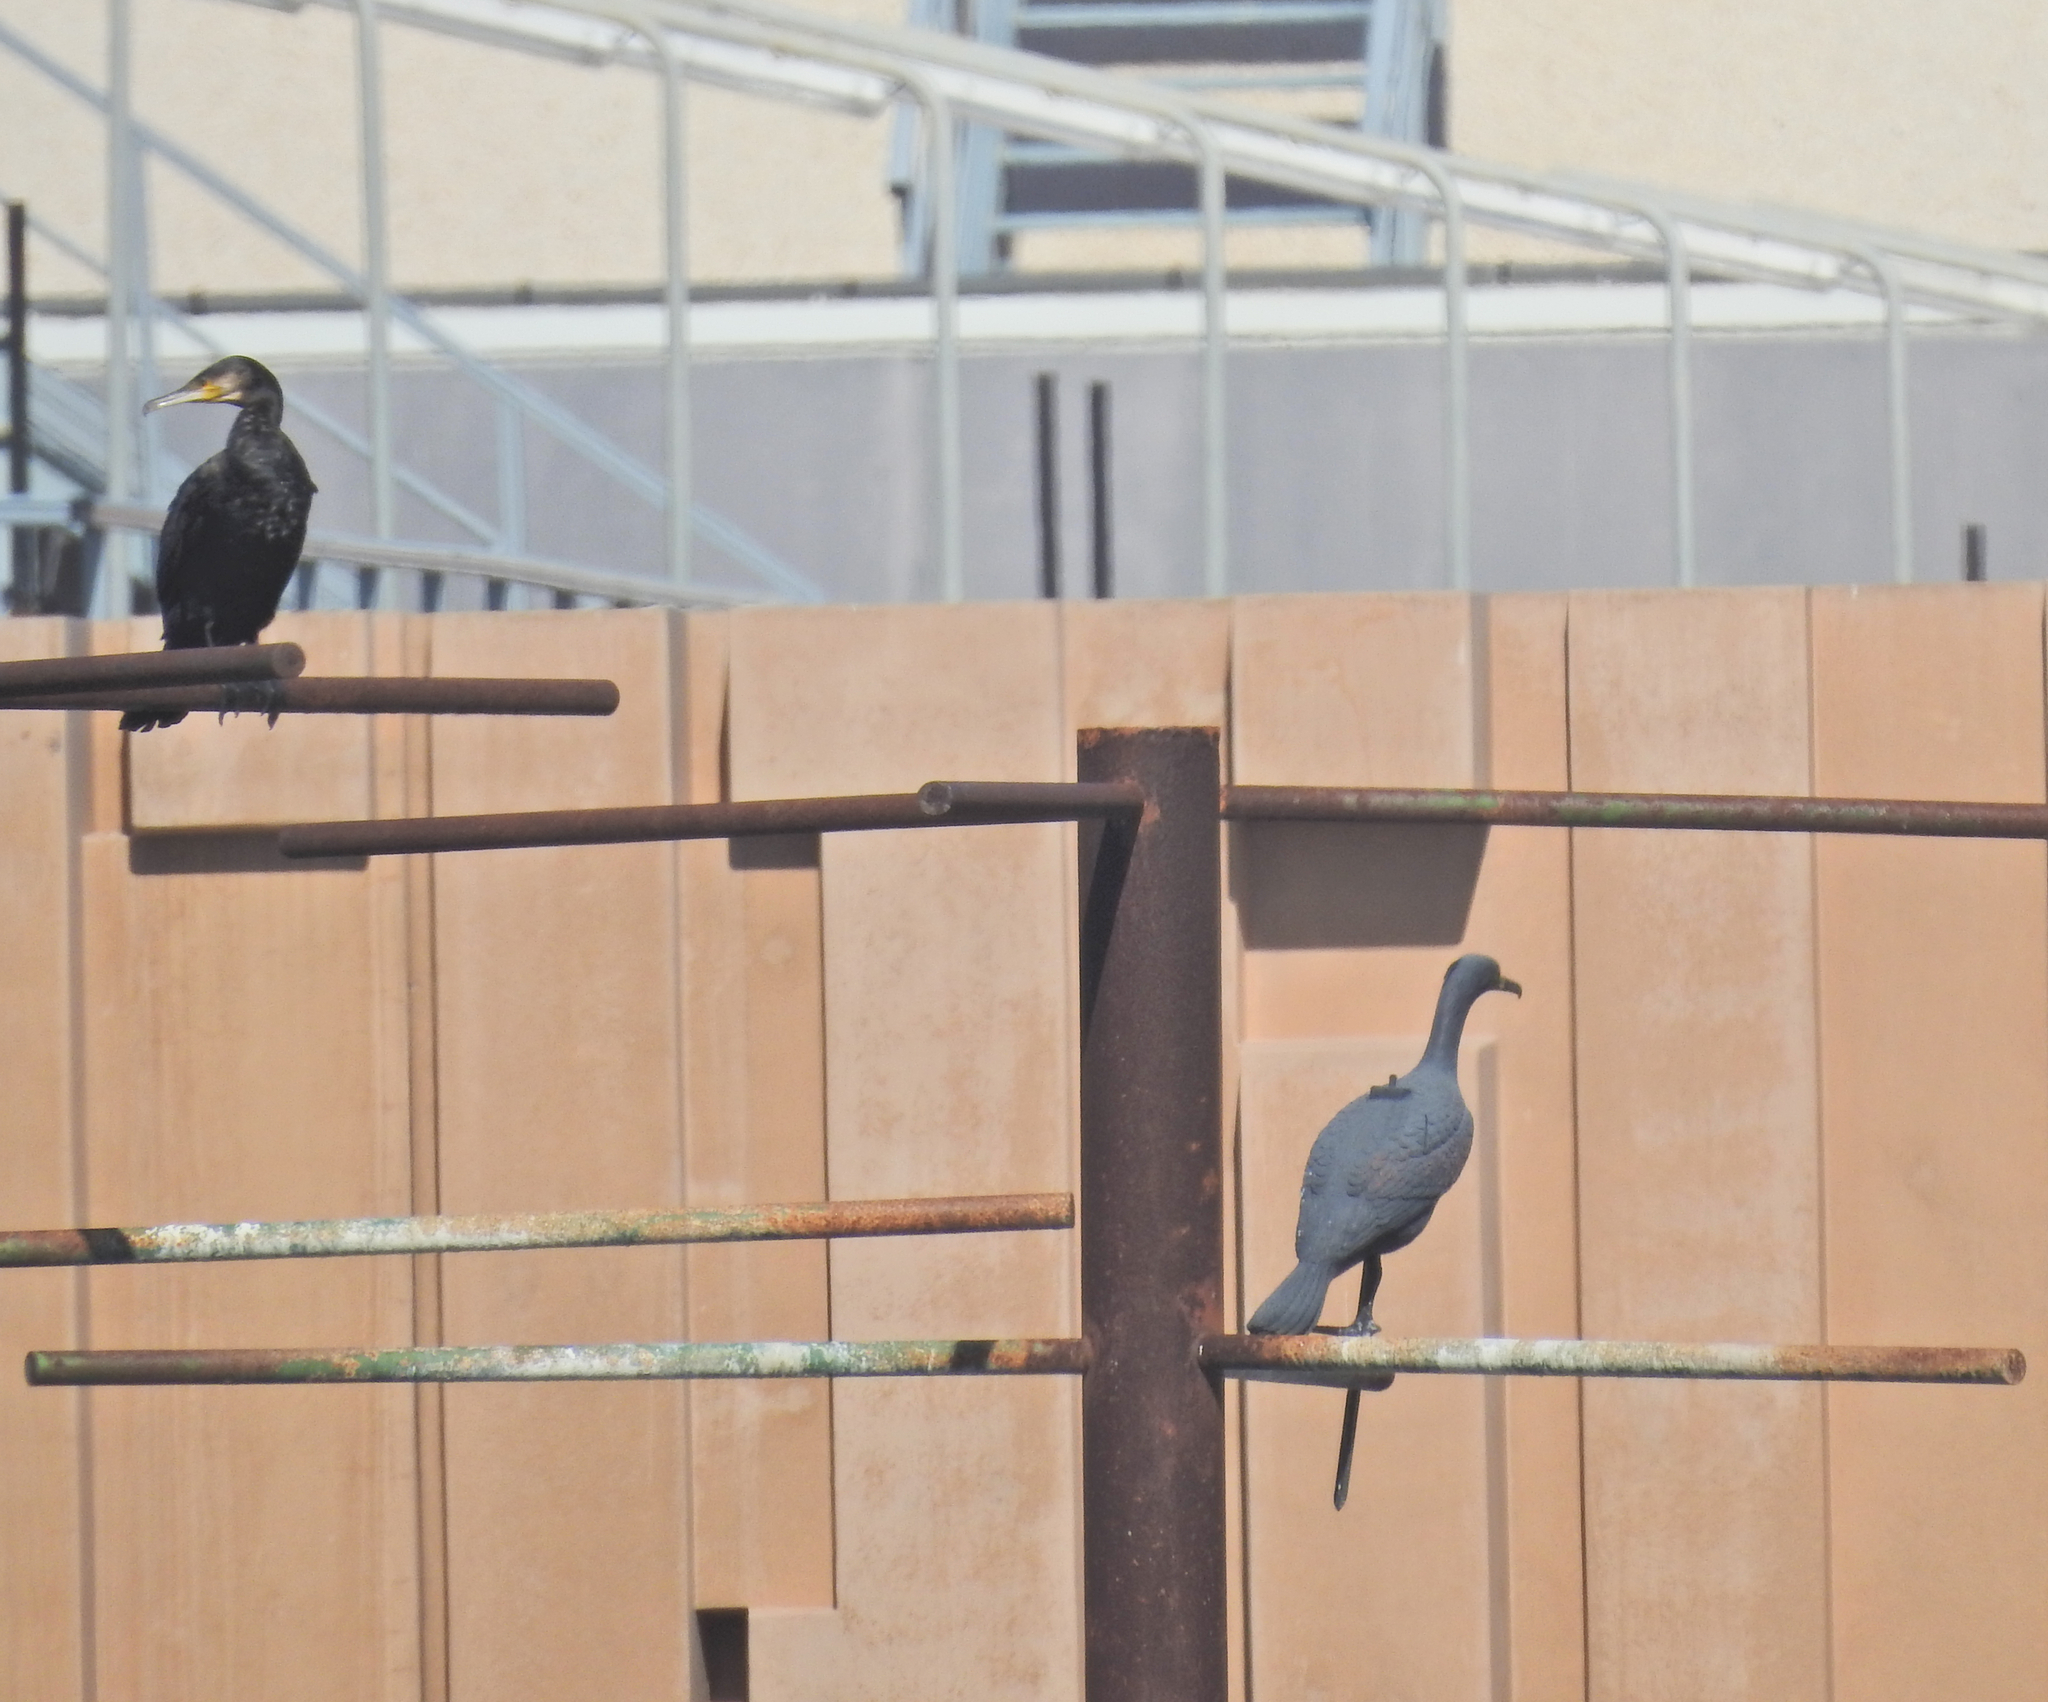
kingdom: Animalia
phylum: Chordata
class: Aves
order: Suliformes
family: Phalacrocoracidae
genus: Phalacrocorax
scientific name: Phalacrocorax carbo
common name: Great cormorant
